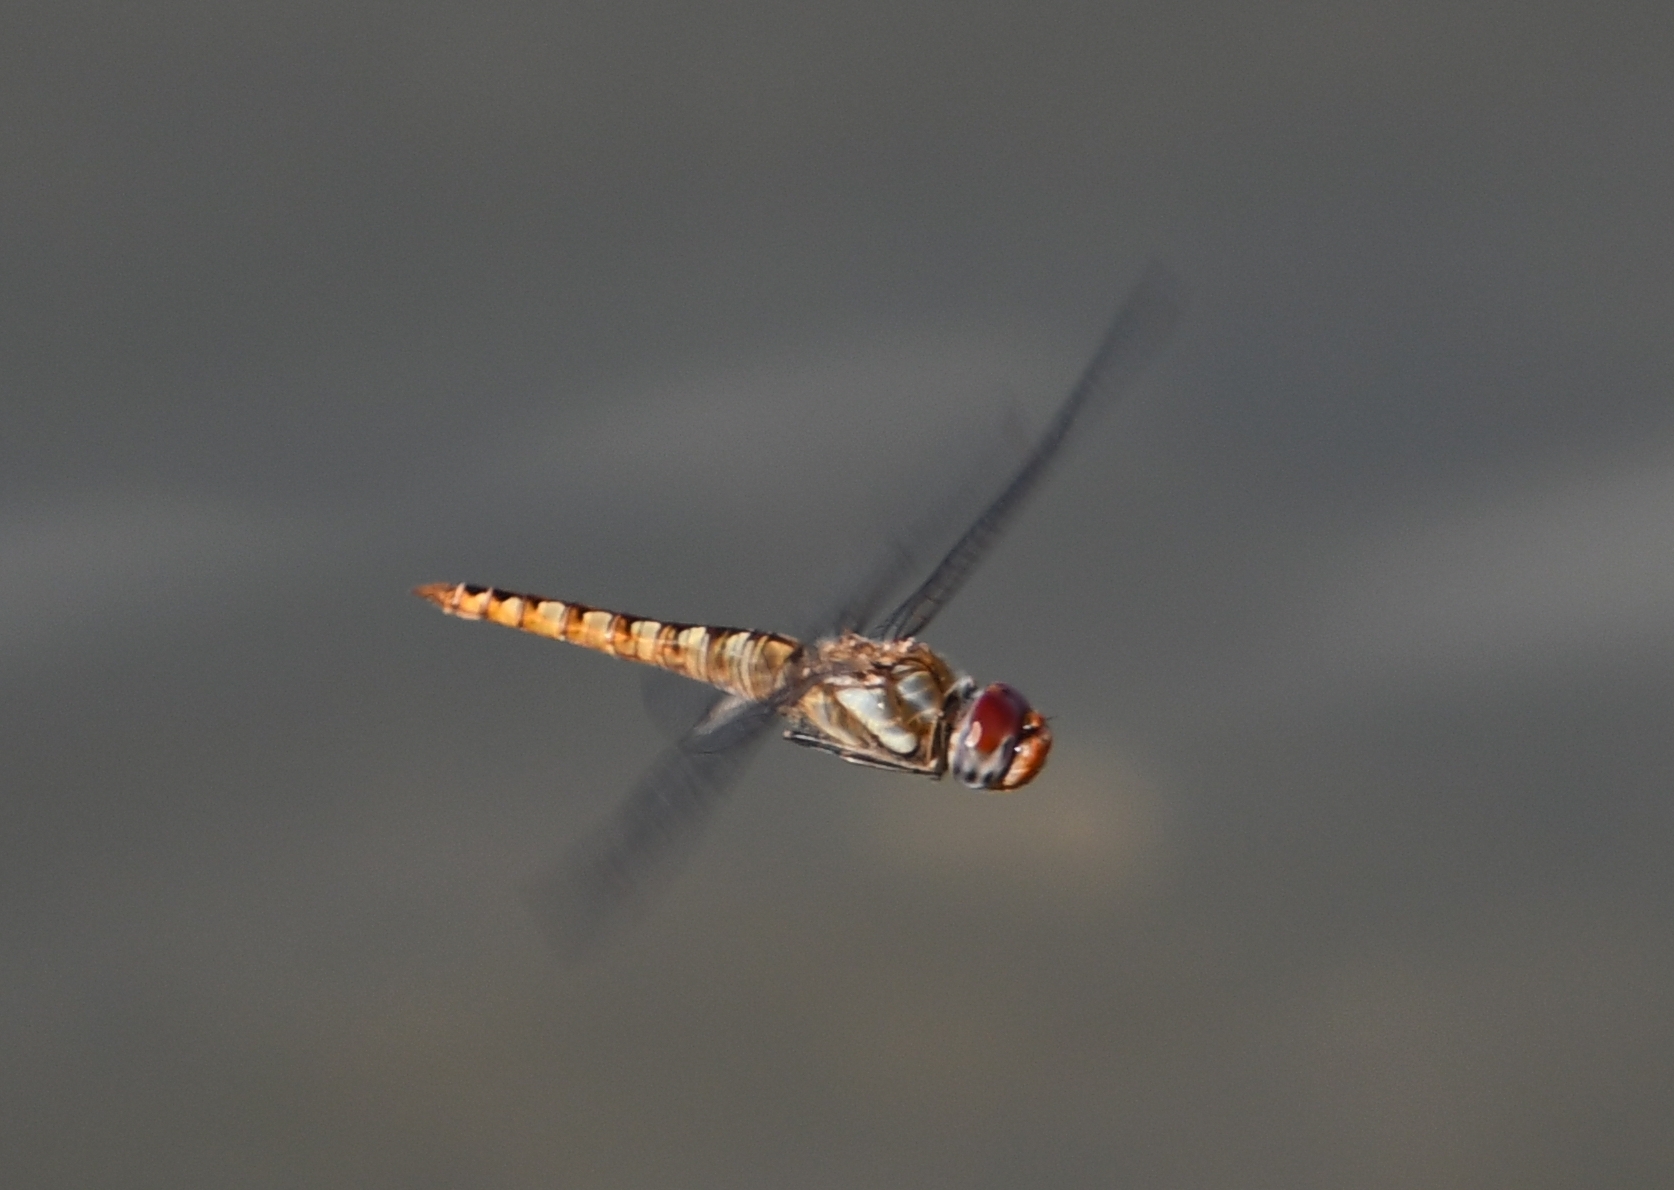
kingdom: Animalia
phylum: Arthropoda
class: Insecta
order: Odonata
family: Libellulidae
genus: Pantala
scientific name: Pantala hymenaea
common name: Spot-winged glider
